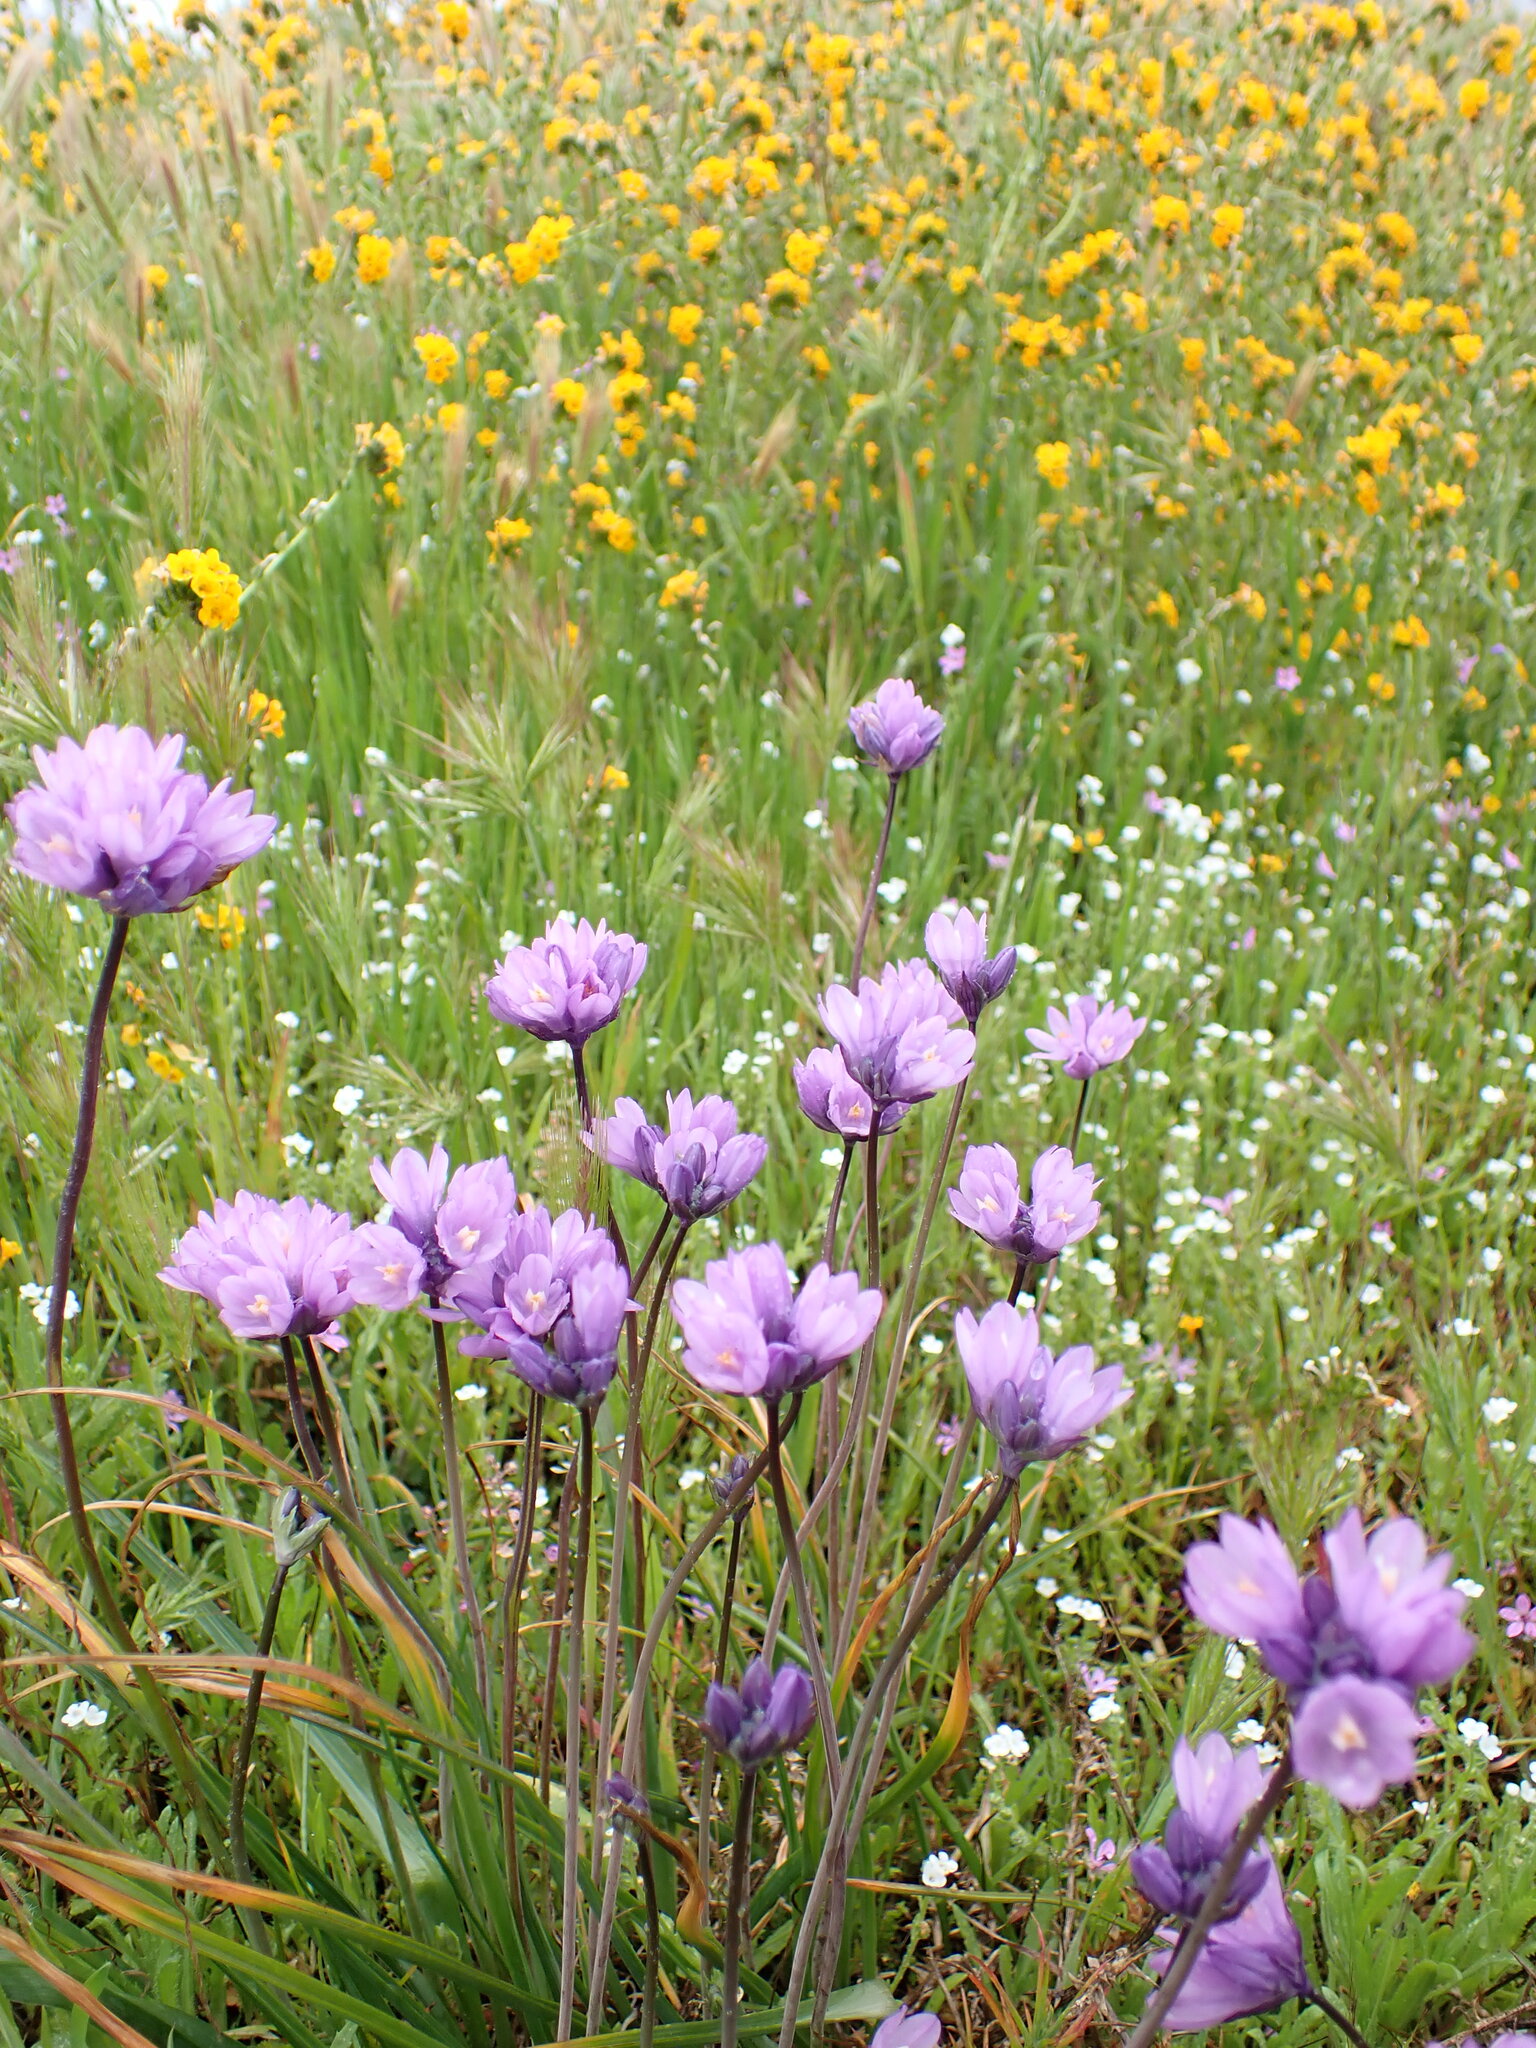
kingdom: Plantae
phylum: Tracheophyta
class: Liliopsida
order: Asparagales
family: Asparagaceae
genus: Dipterostemon
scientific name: Dipterostemon capitatus
